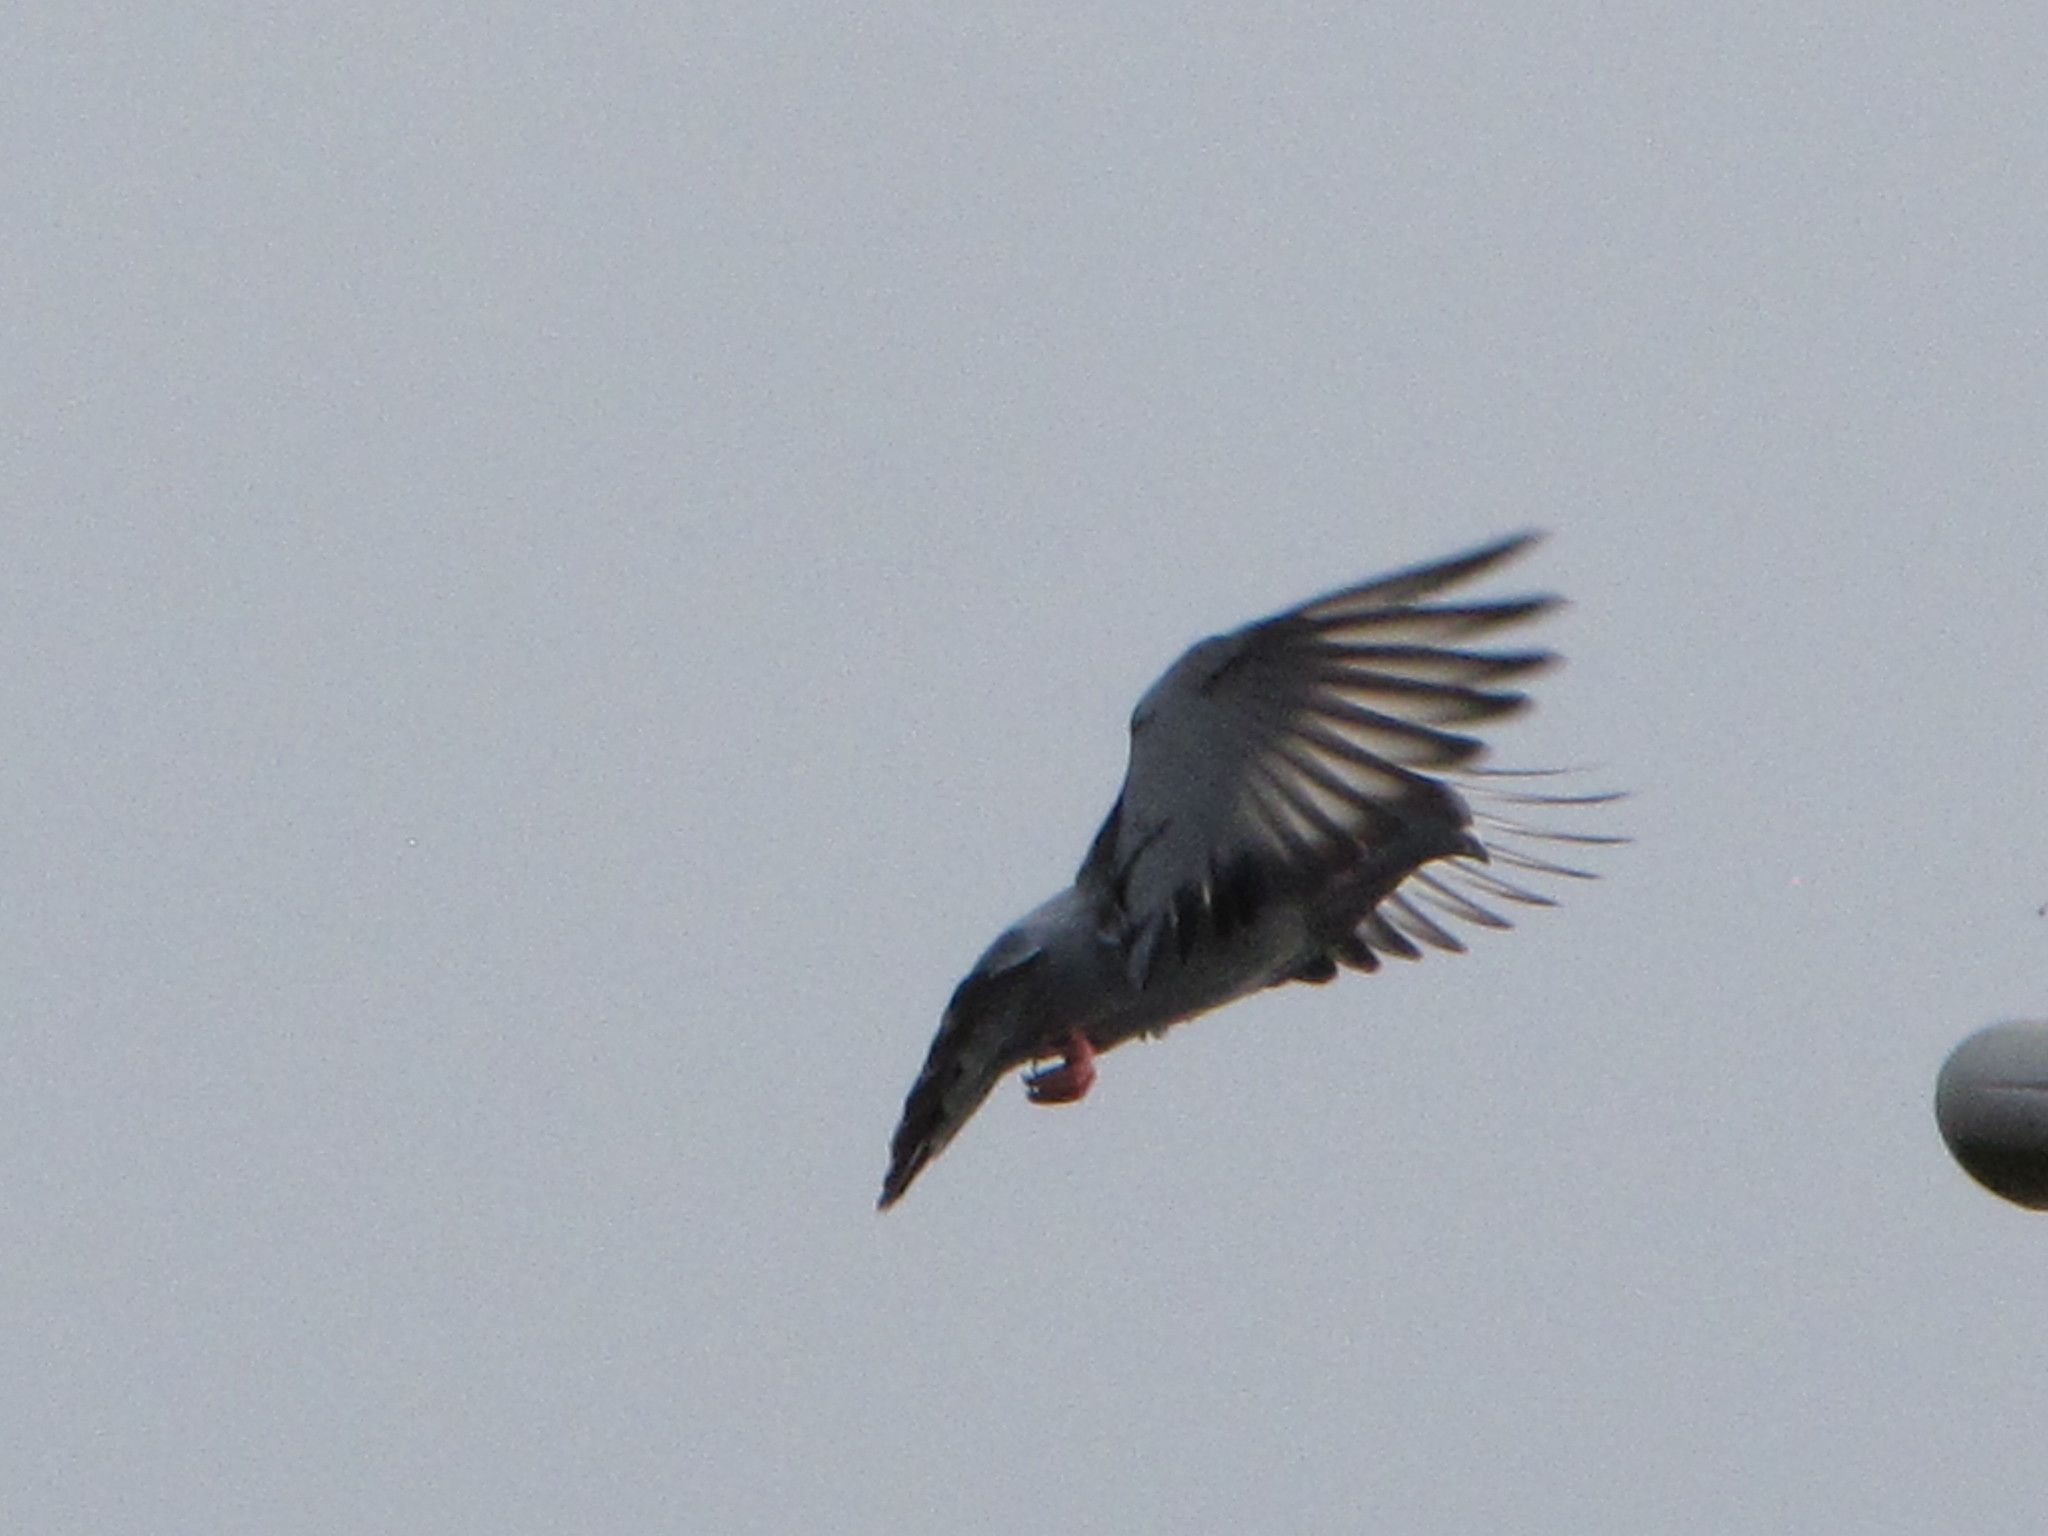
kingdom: Animalia
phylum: Chordata
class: Aves
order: Columbiformes
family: Columbidae
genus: Columba
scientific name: Columba livia
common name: Rock pigeon
